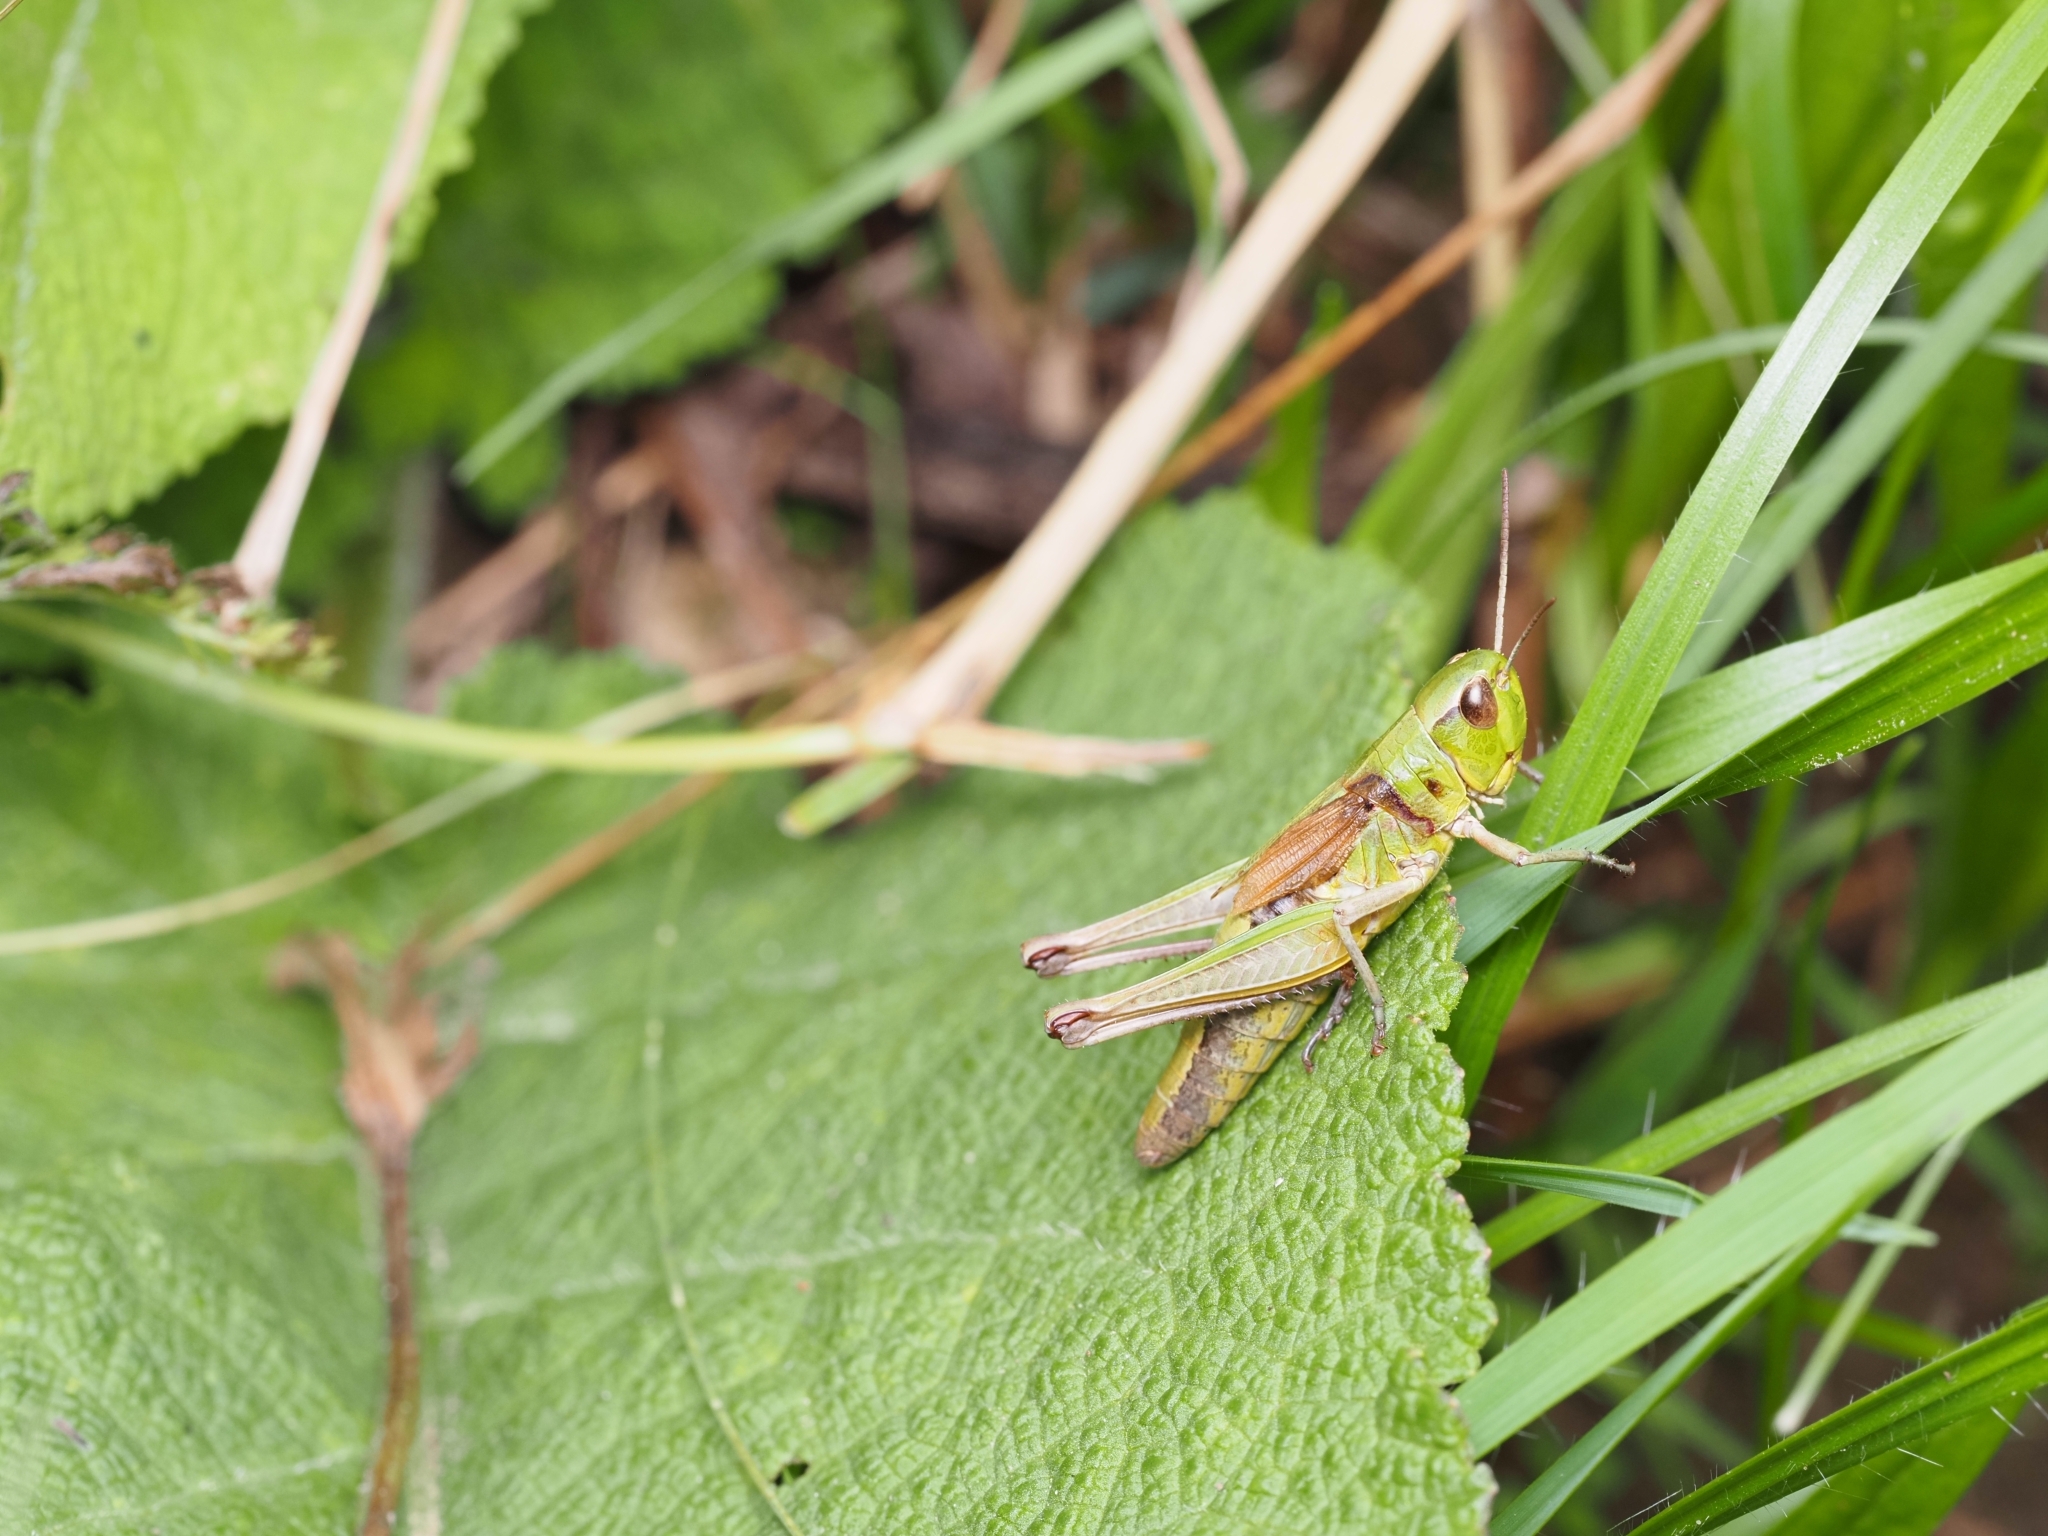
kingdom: Animalia
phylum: Arthropoda
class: Insecta
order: Orthoptera
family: Acrididae
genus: Pseudochorthippus
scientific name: Pseudochorthippus parallelus
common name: Meadow grasshopper
